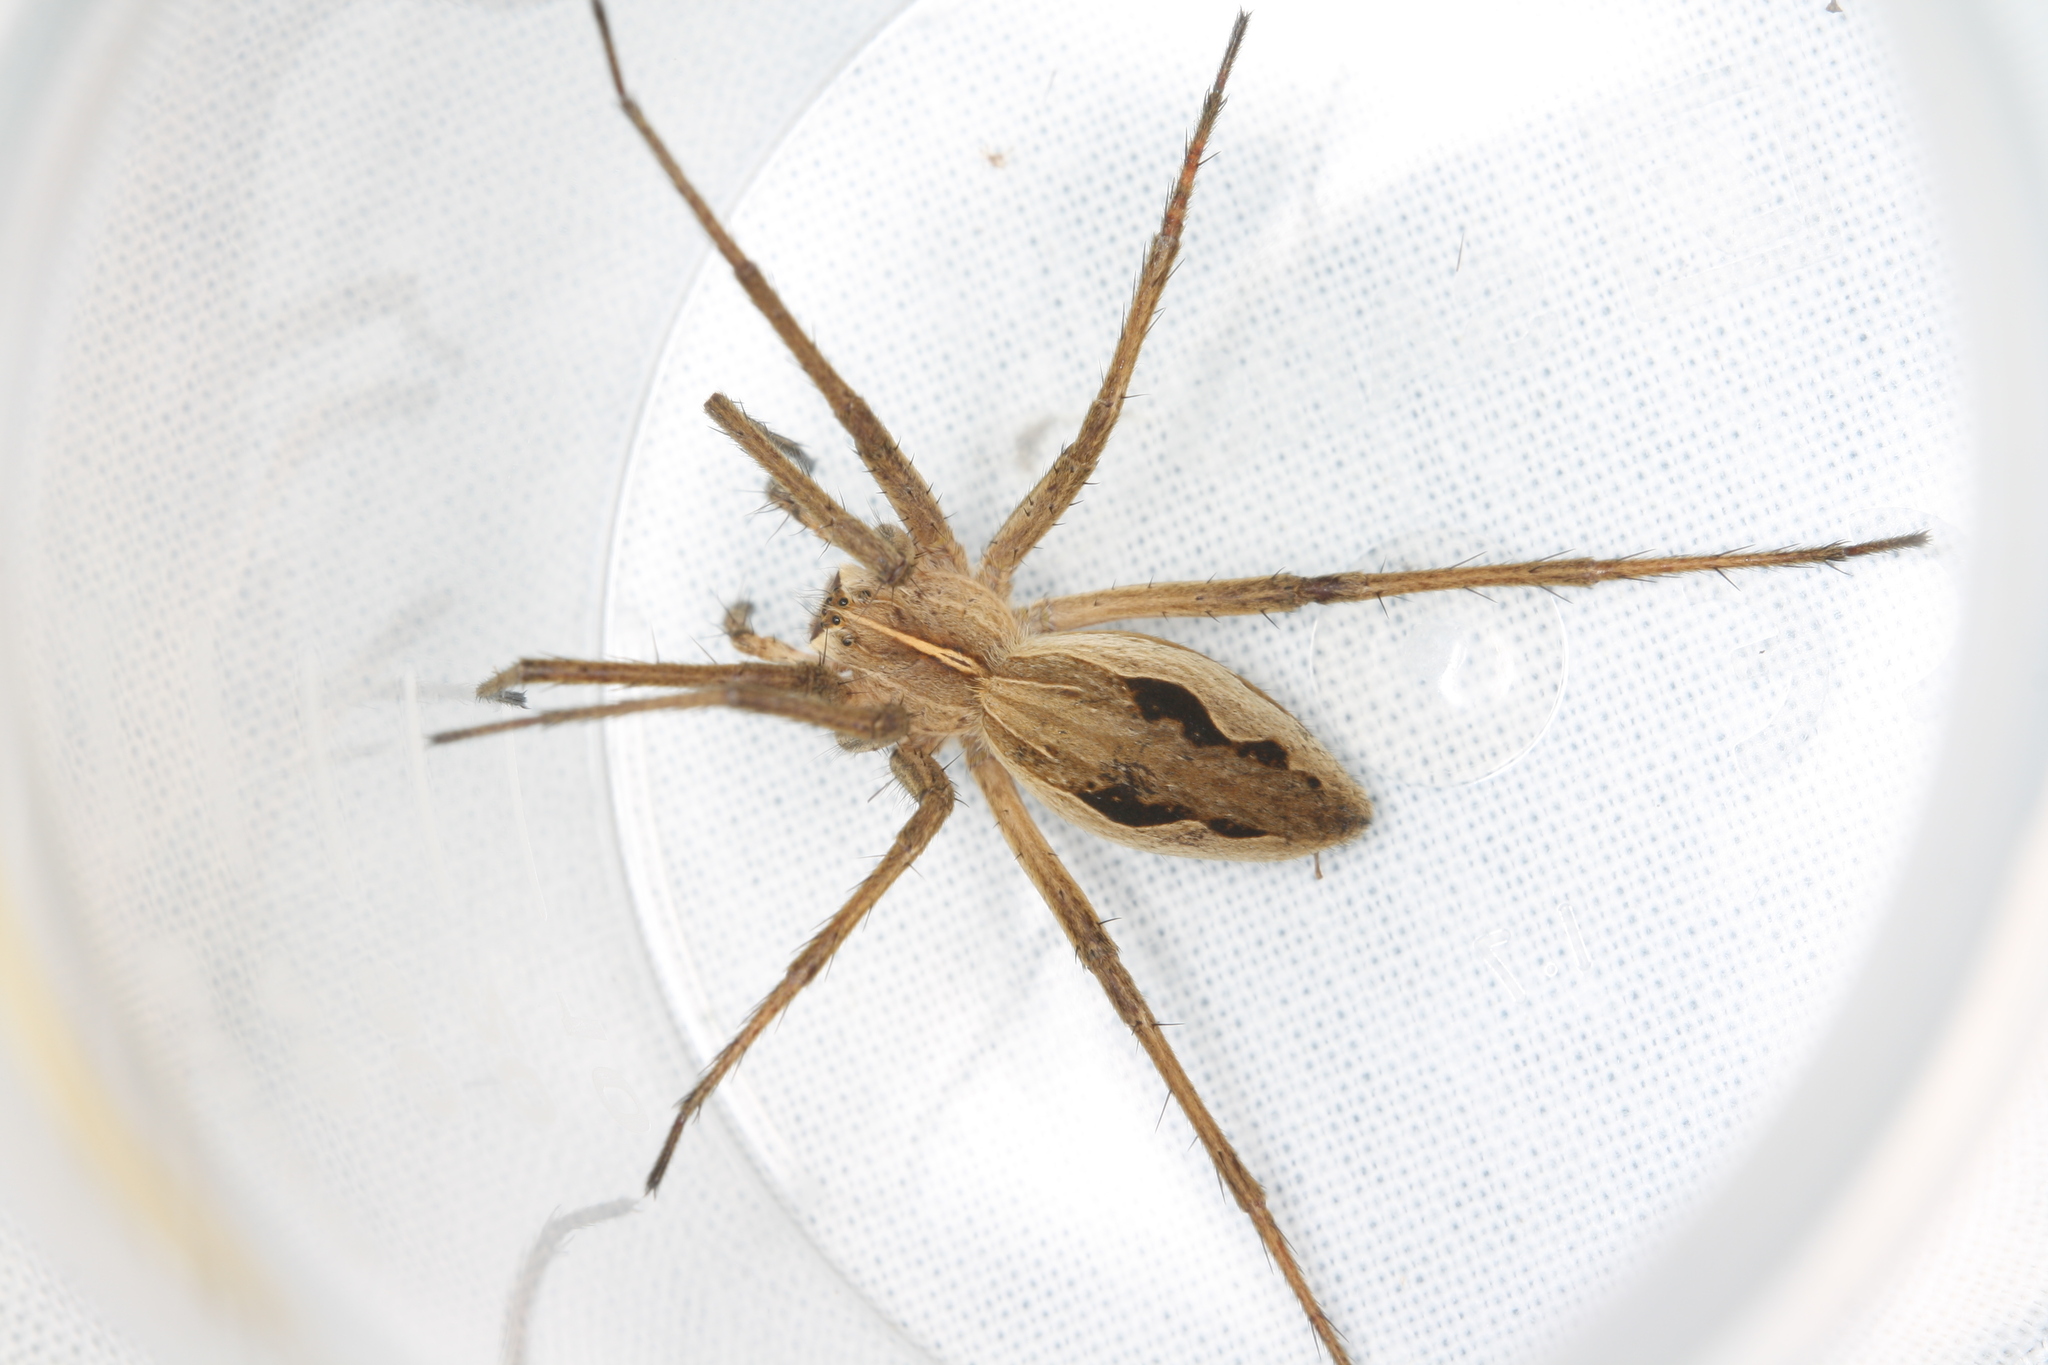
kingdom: Animalia
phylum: Arthropoda
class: Arachnida
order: Araneae
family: Pisauridae
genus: Pisaura
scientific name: Pisaura mirabilis
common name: Tent spider
